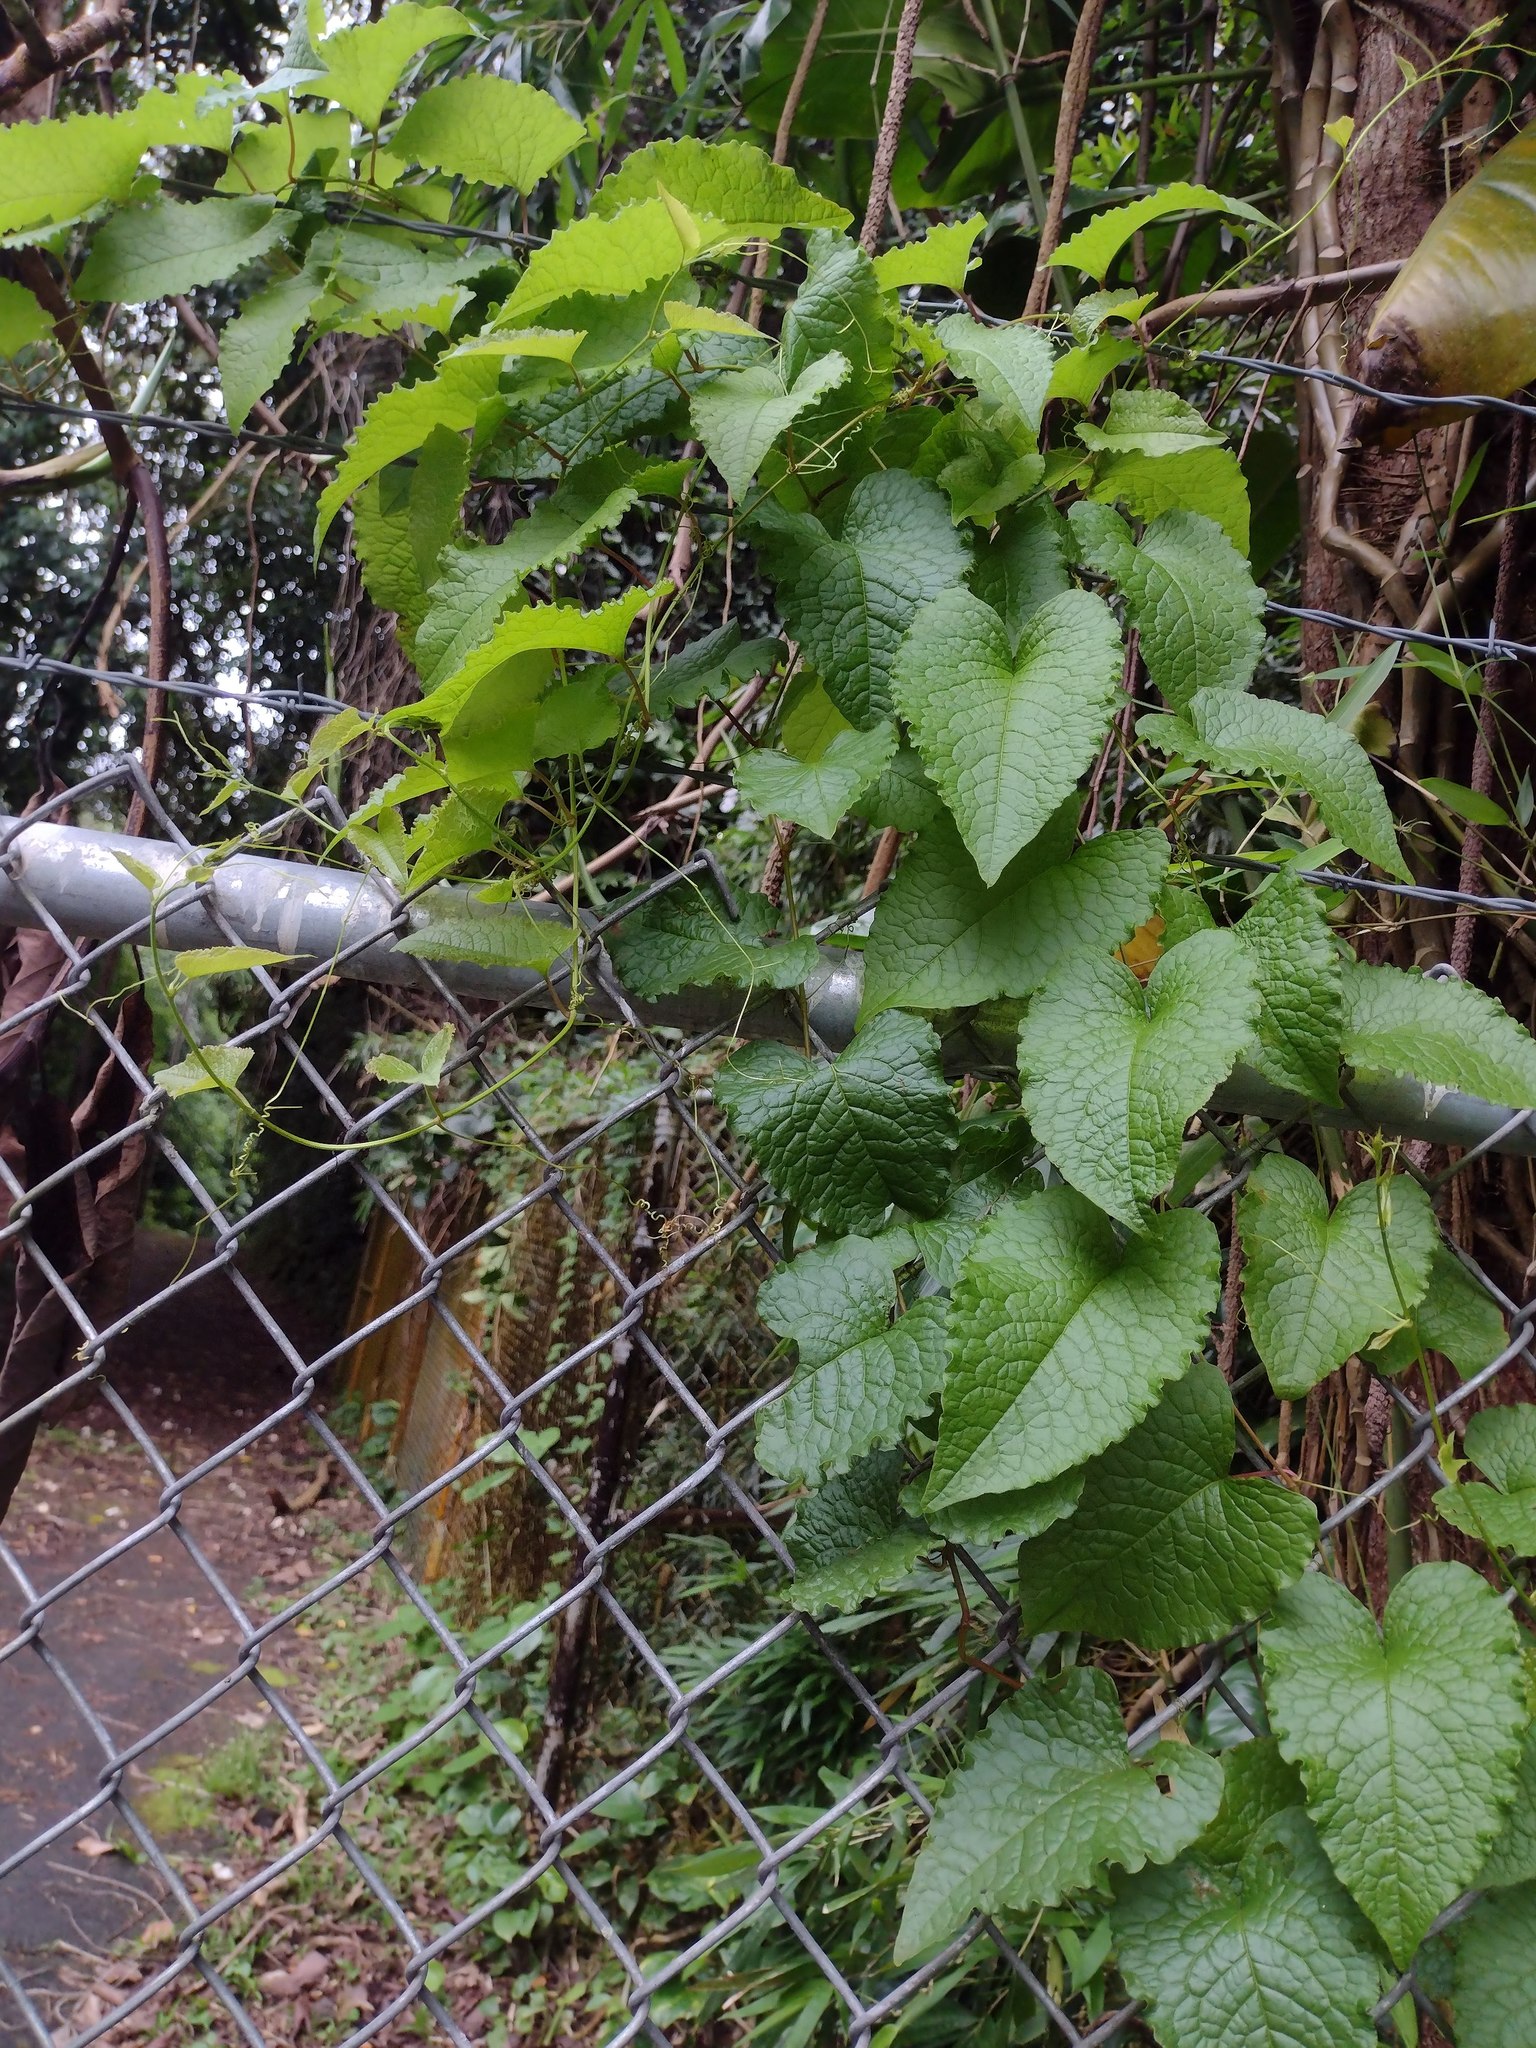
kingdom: Plantae
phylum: Tracheophyta
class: Magnoliopsida
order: Caryophyllales
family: Polygonaceae
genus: Antigonon
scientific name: Antigonon leptopus
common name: Coral vine
